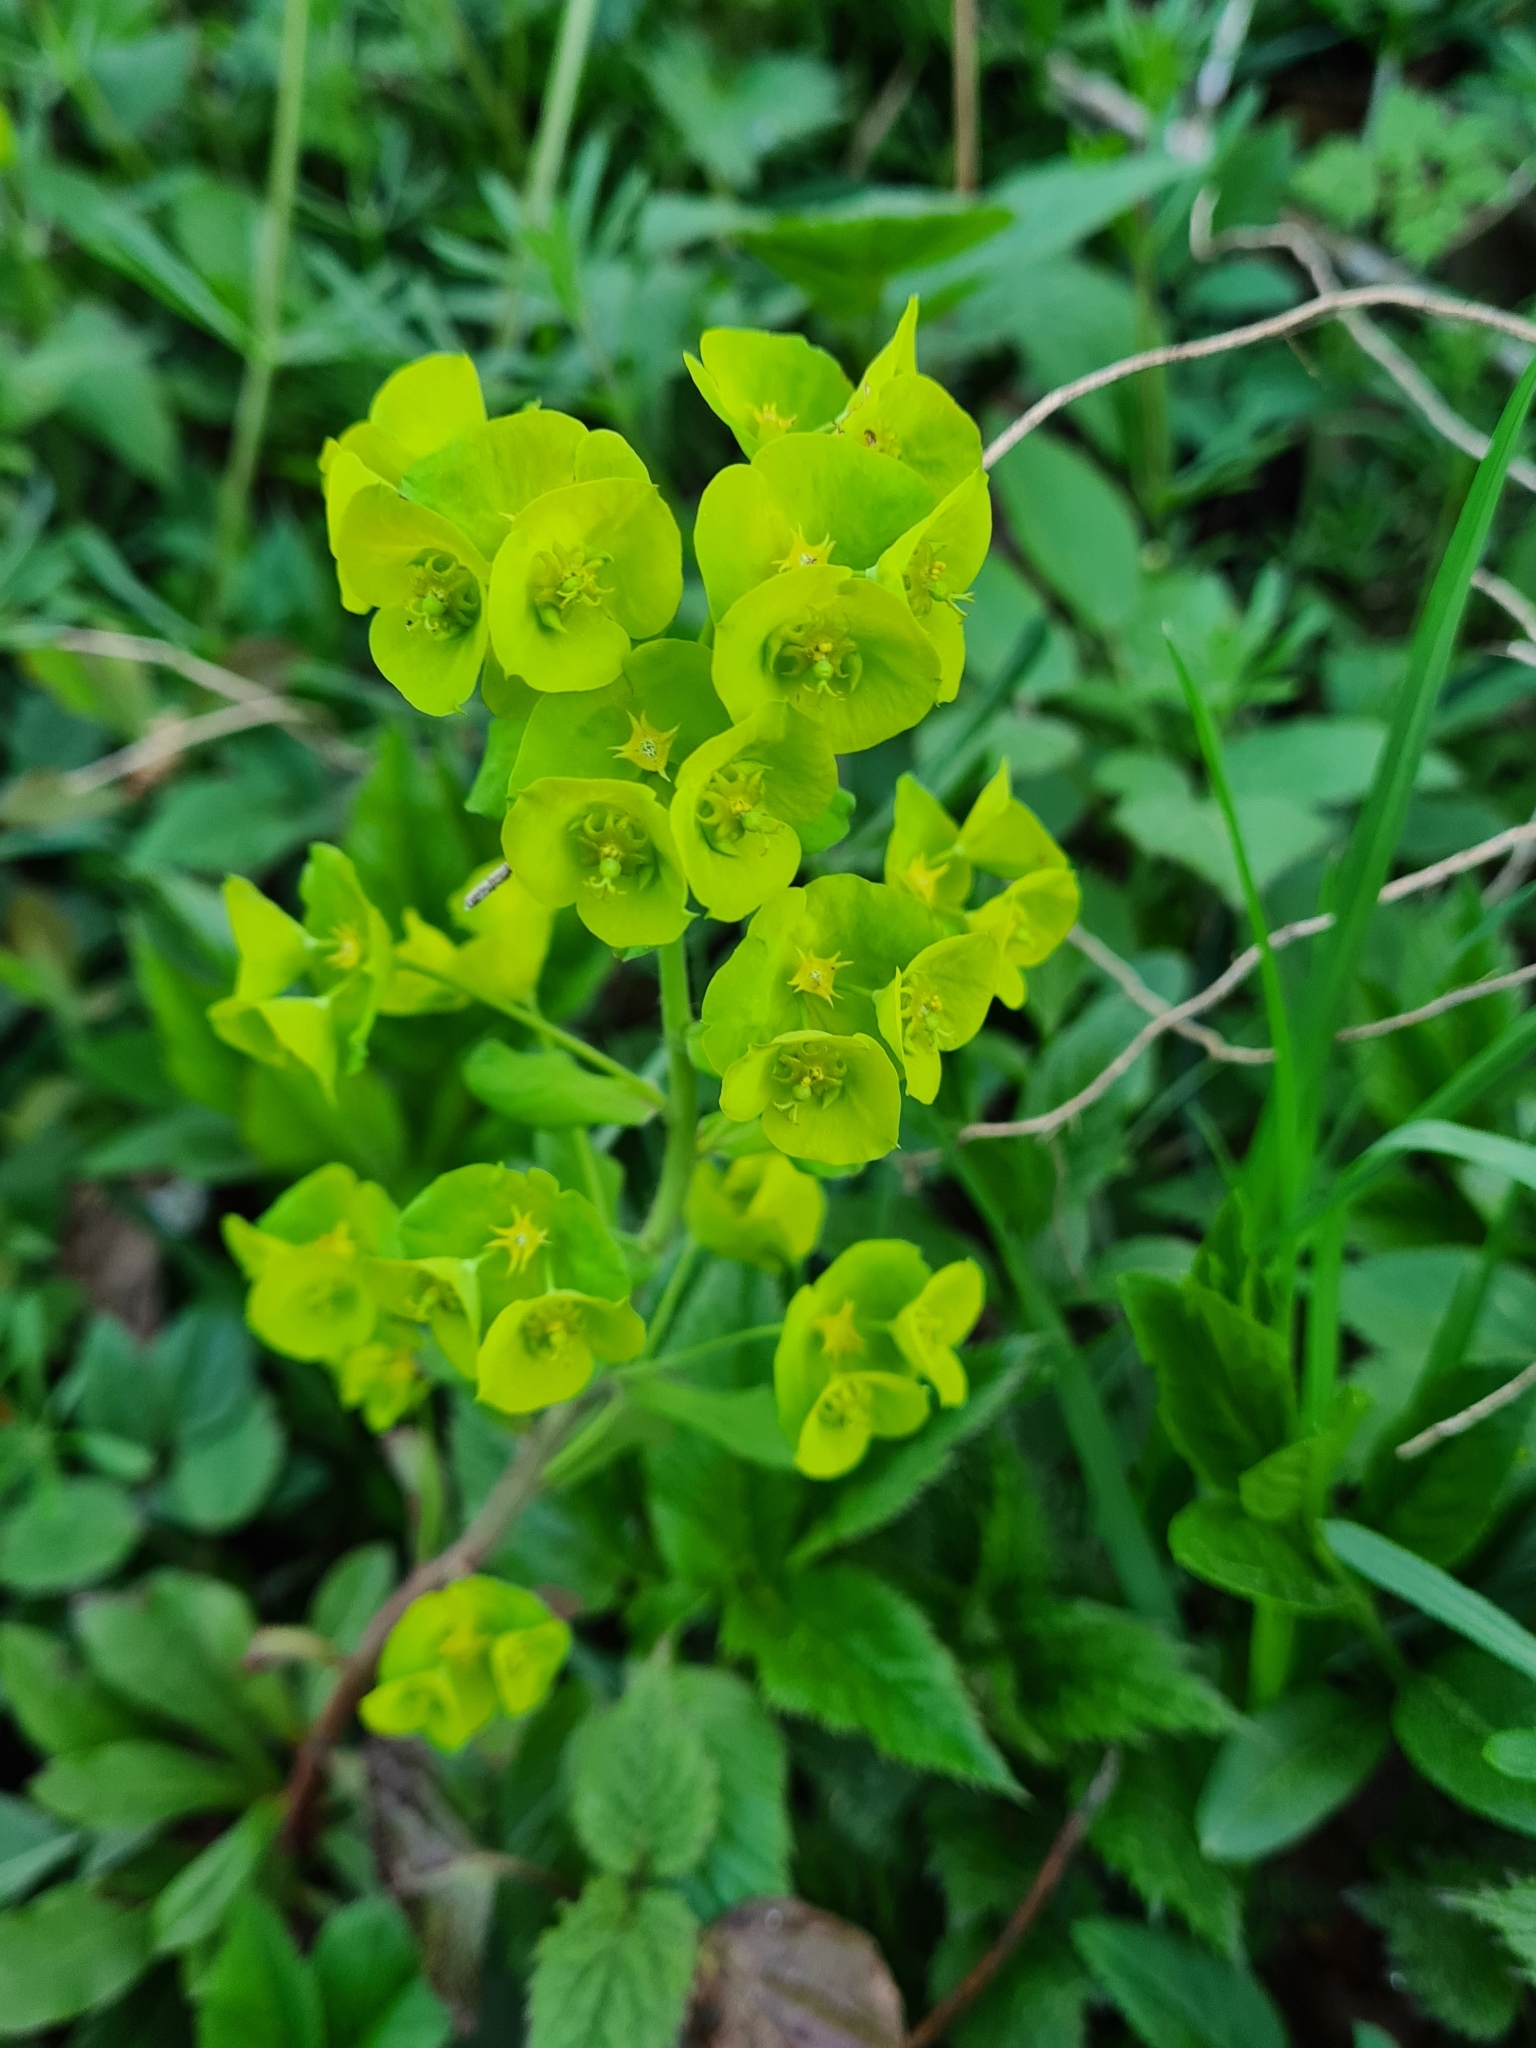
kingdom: Plantae
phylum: Tracheophyta
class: Magnoliopsida
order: Malpighiales
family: Euphorbiaceae
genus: Euphorbia
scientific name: Euphorbia amygdaloides
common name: Wood spurge
